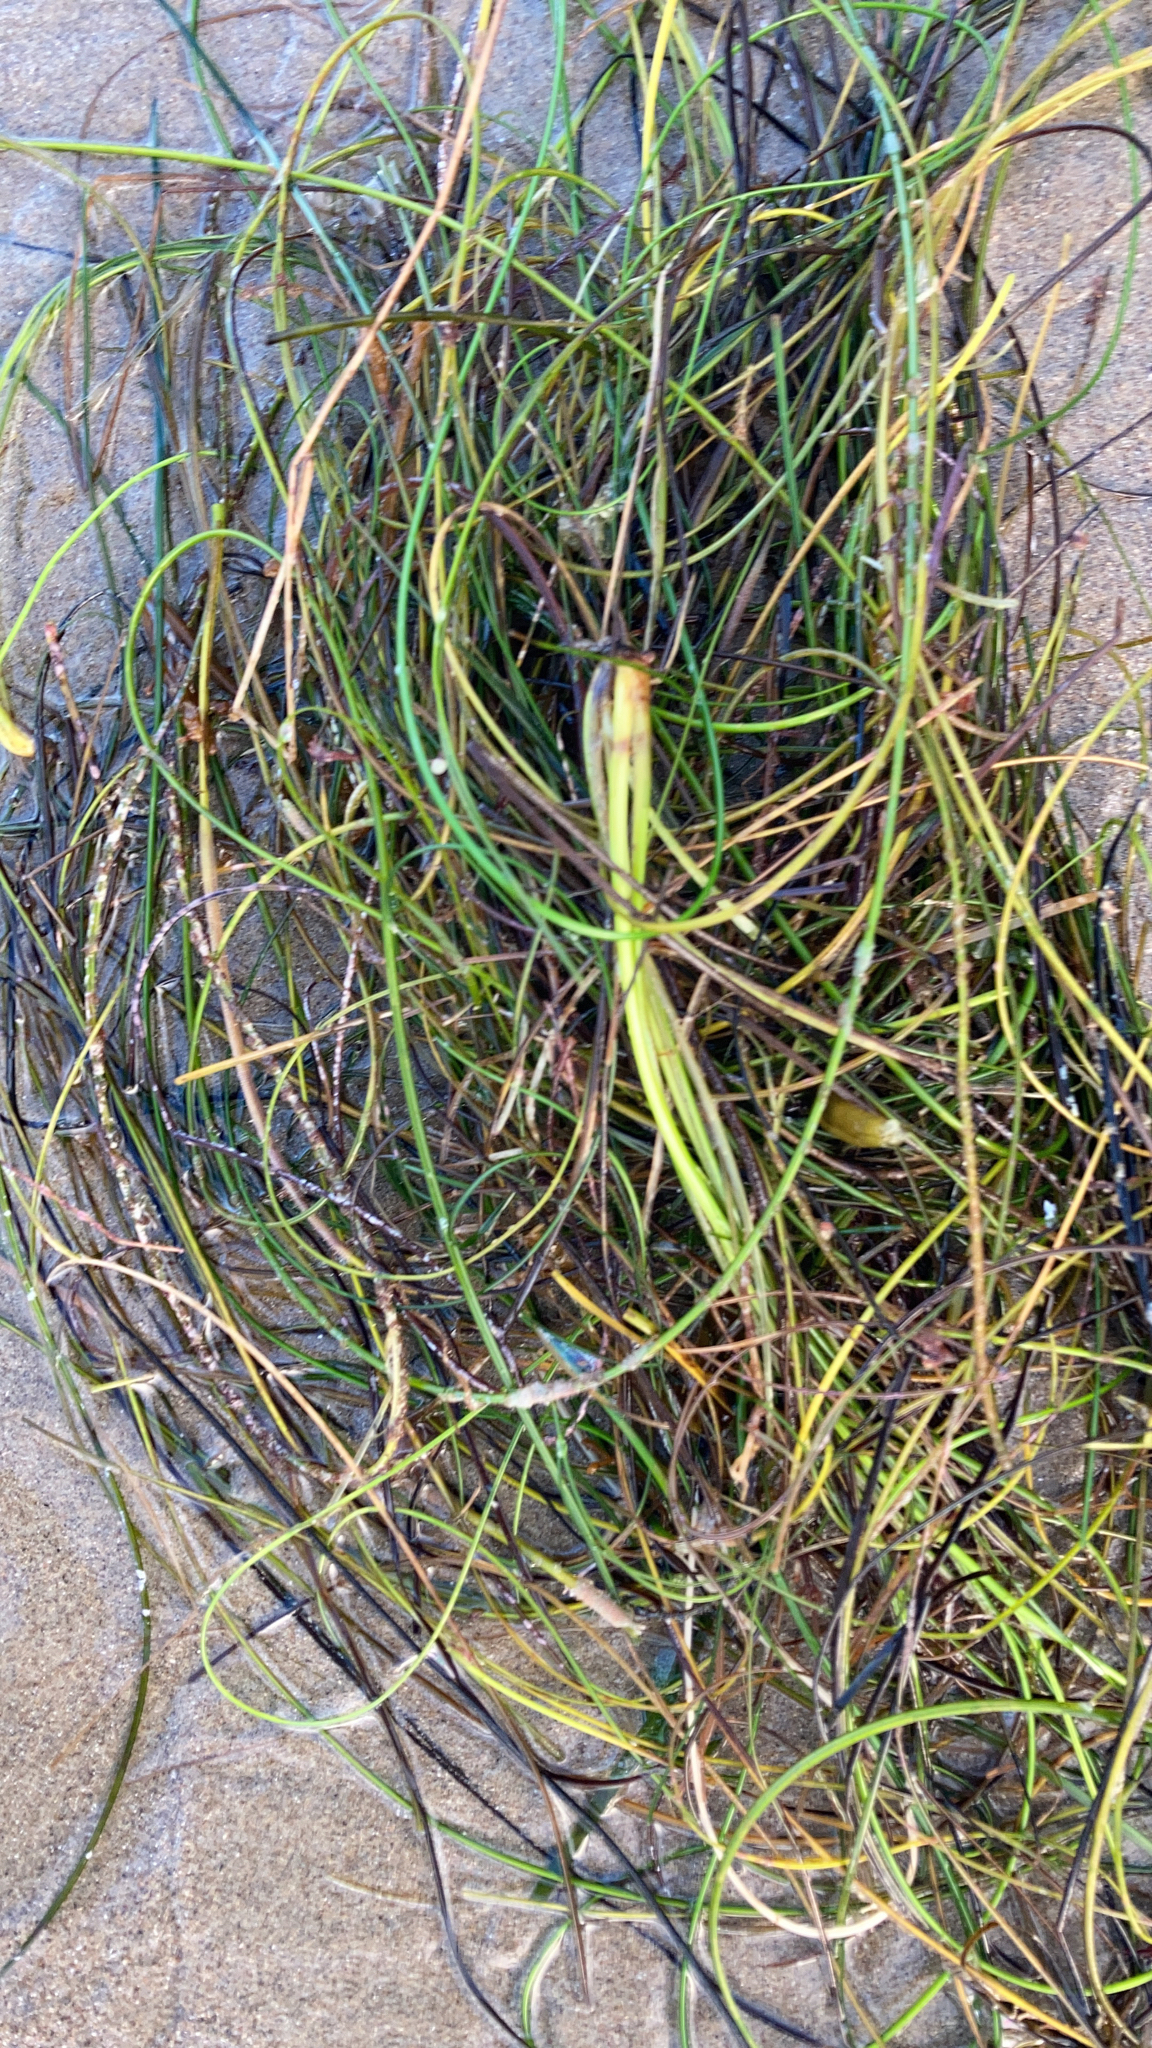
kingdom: Plantae
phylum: Tracheophyta
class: Liliopsida
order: Alismatales
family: Zosteraceae
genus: Phyllospadix
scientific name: Phyllospadix torreyi
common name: Surfgrass
